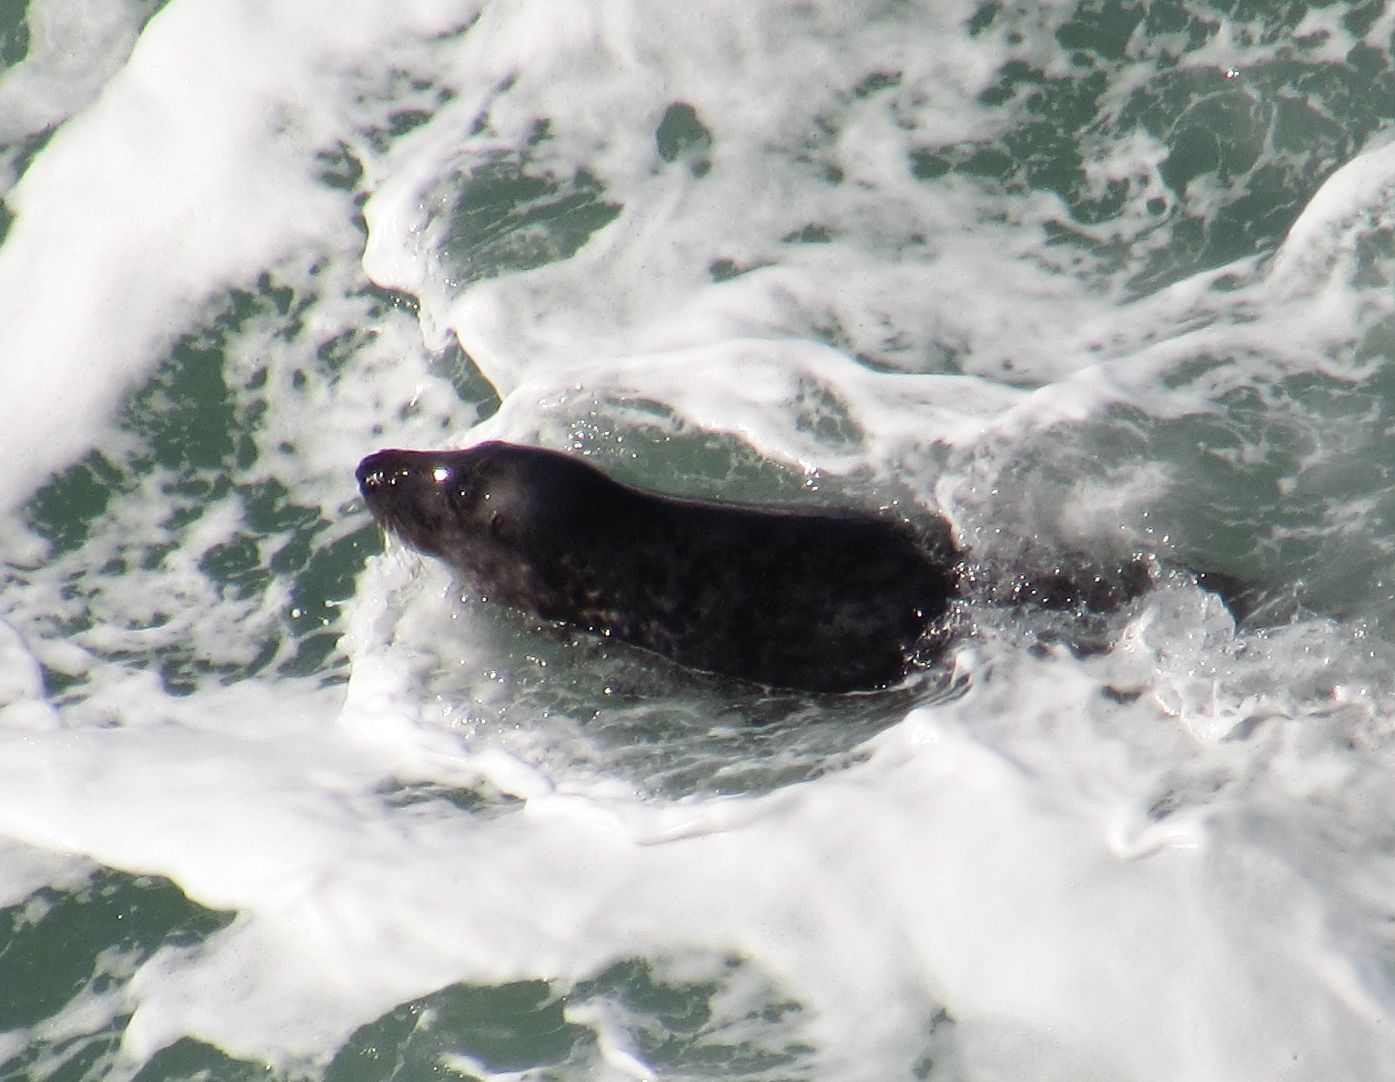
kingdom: Animalia
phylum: Chordata
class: Mammalia
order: Carnivora
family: Phocidae
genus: Halichoerus
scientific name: Halichoerus grypus
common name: Grey seal
